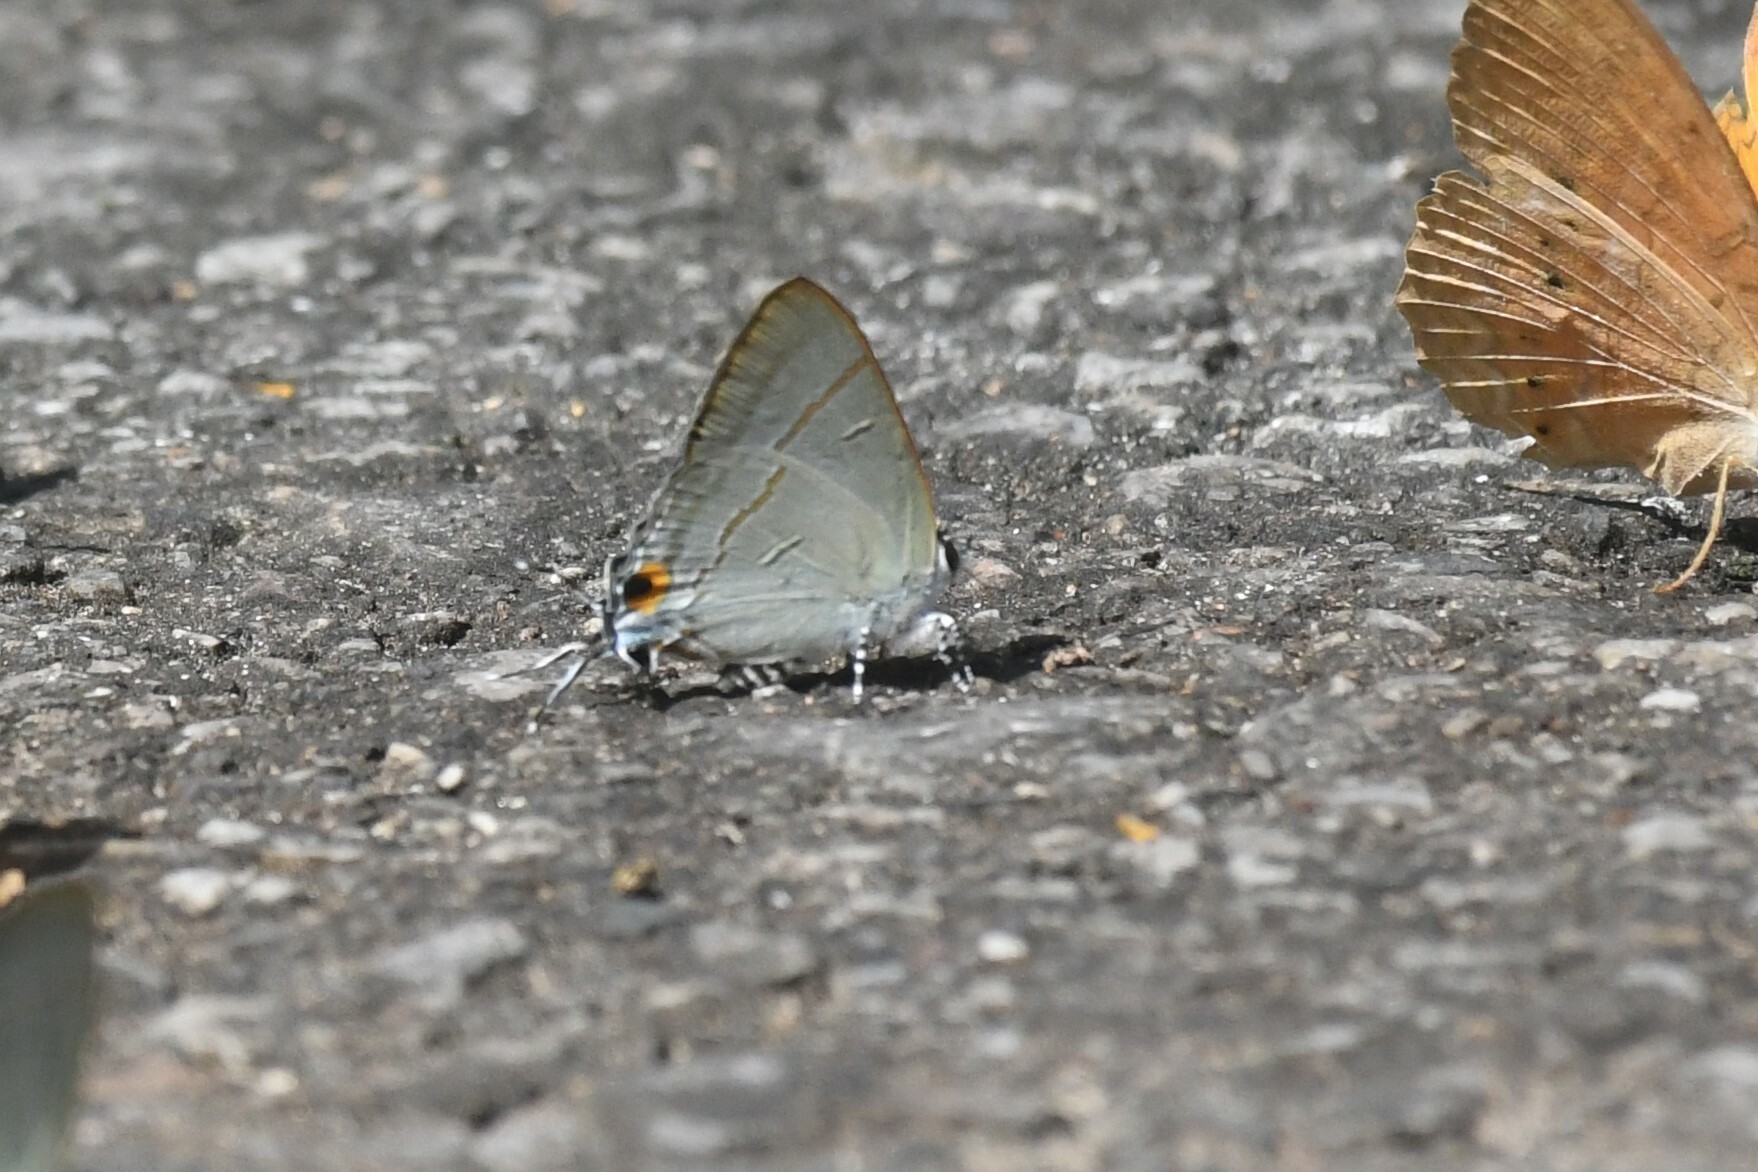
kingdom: Animalia
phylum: Arthropoda
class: Insecta
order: Lepidoptera
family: Lycaenidae
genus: Hypolycaena
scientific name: Hypolycaena erylus
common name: Common tit
